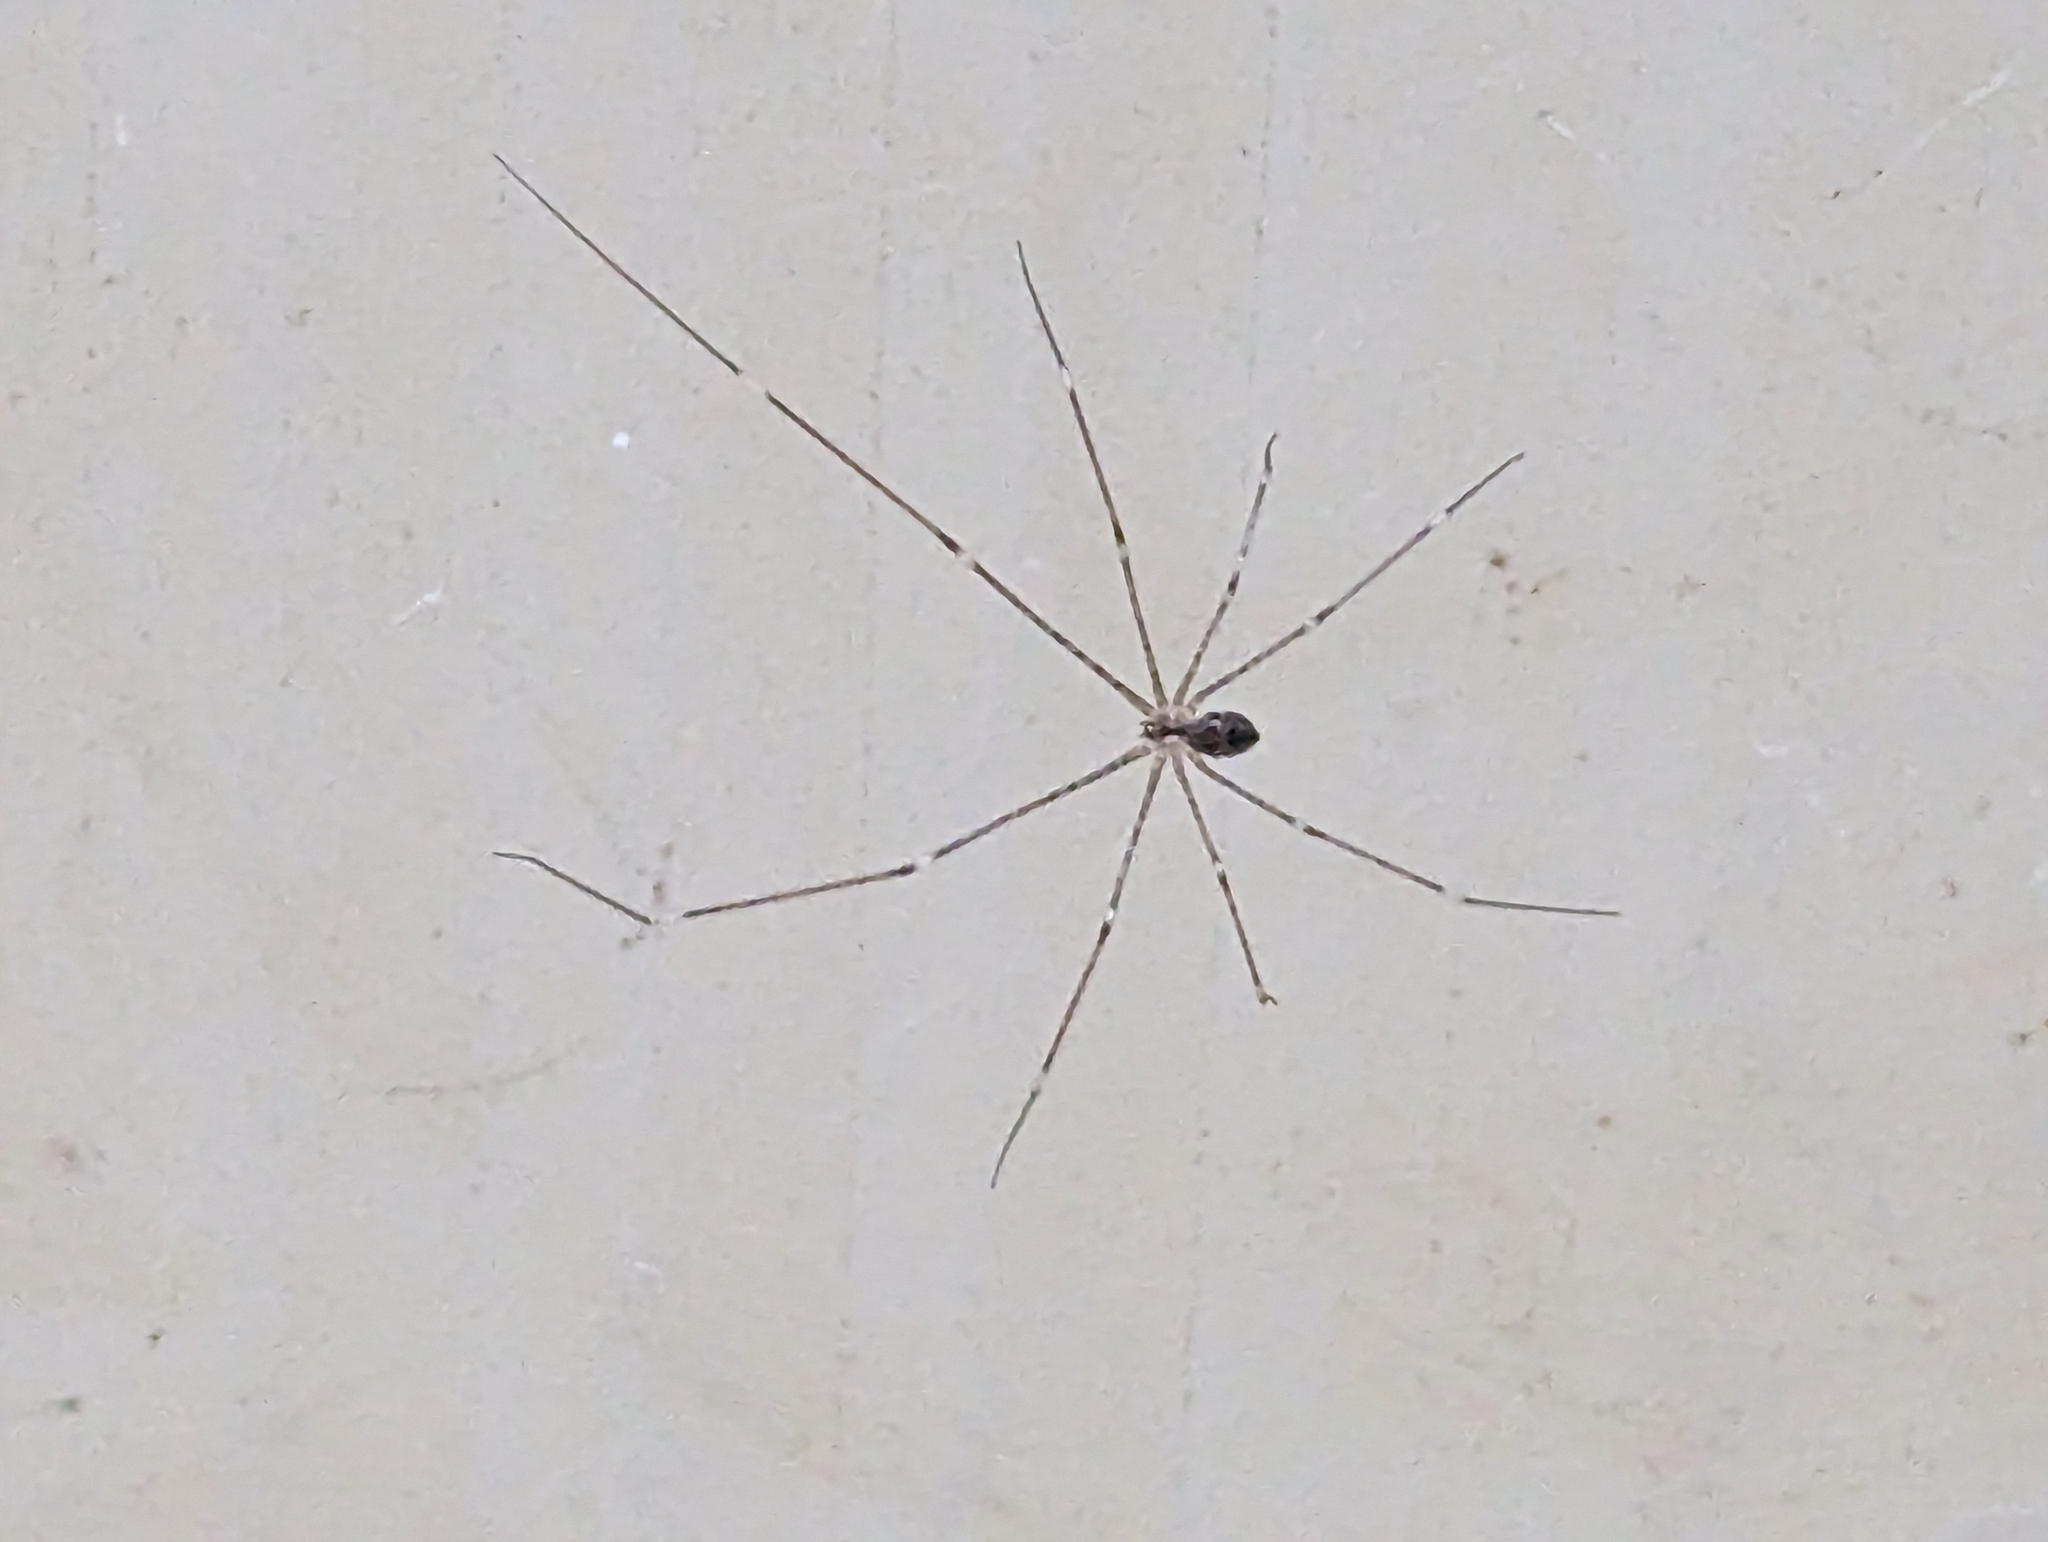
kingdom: Animalia
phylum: Arthropoda
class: Arachnida
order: Araneae
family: Pholcidae
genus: Crossopriza
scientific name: Crossopriza lyoni
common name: Cellar spiders
